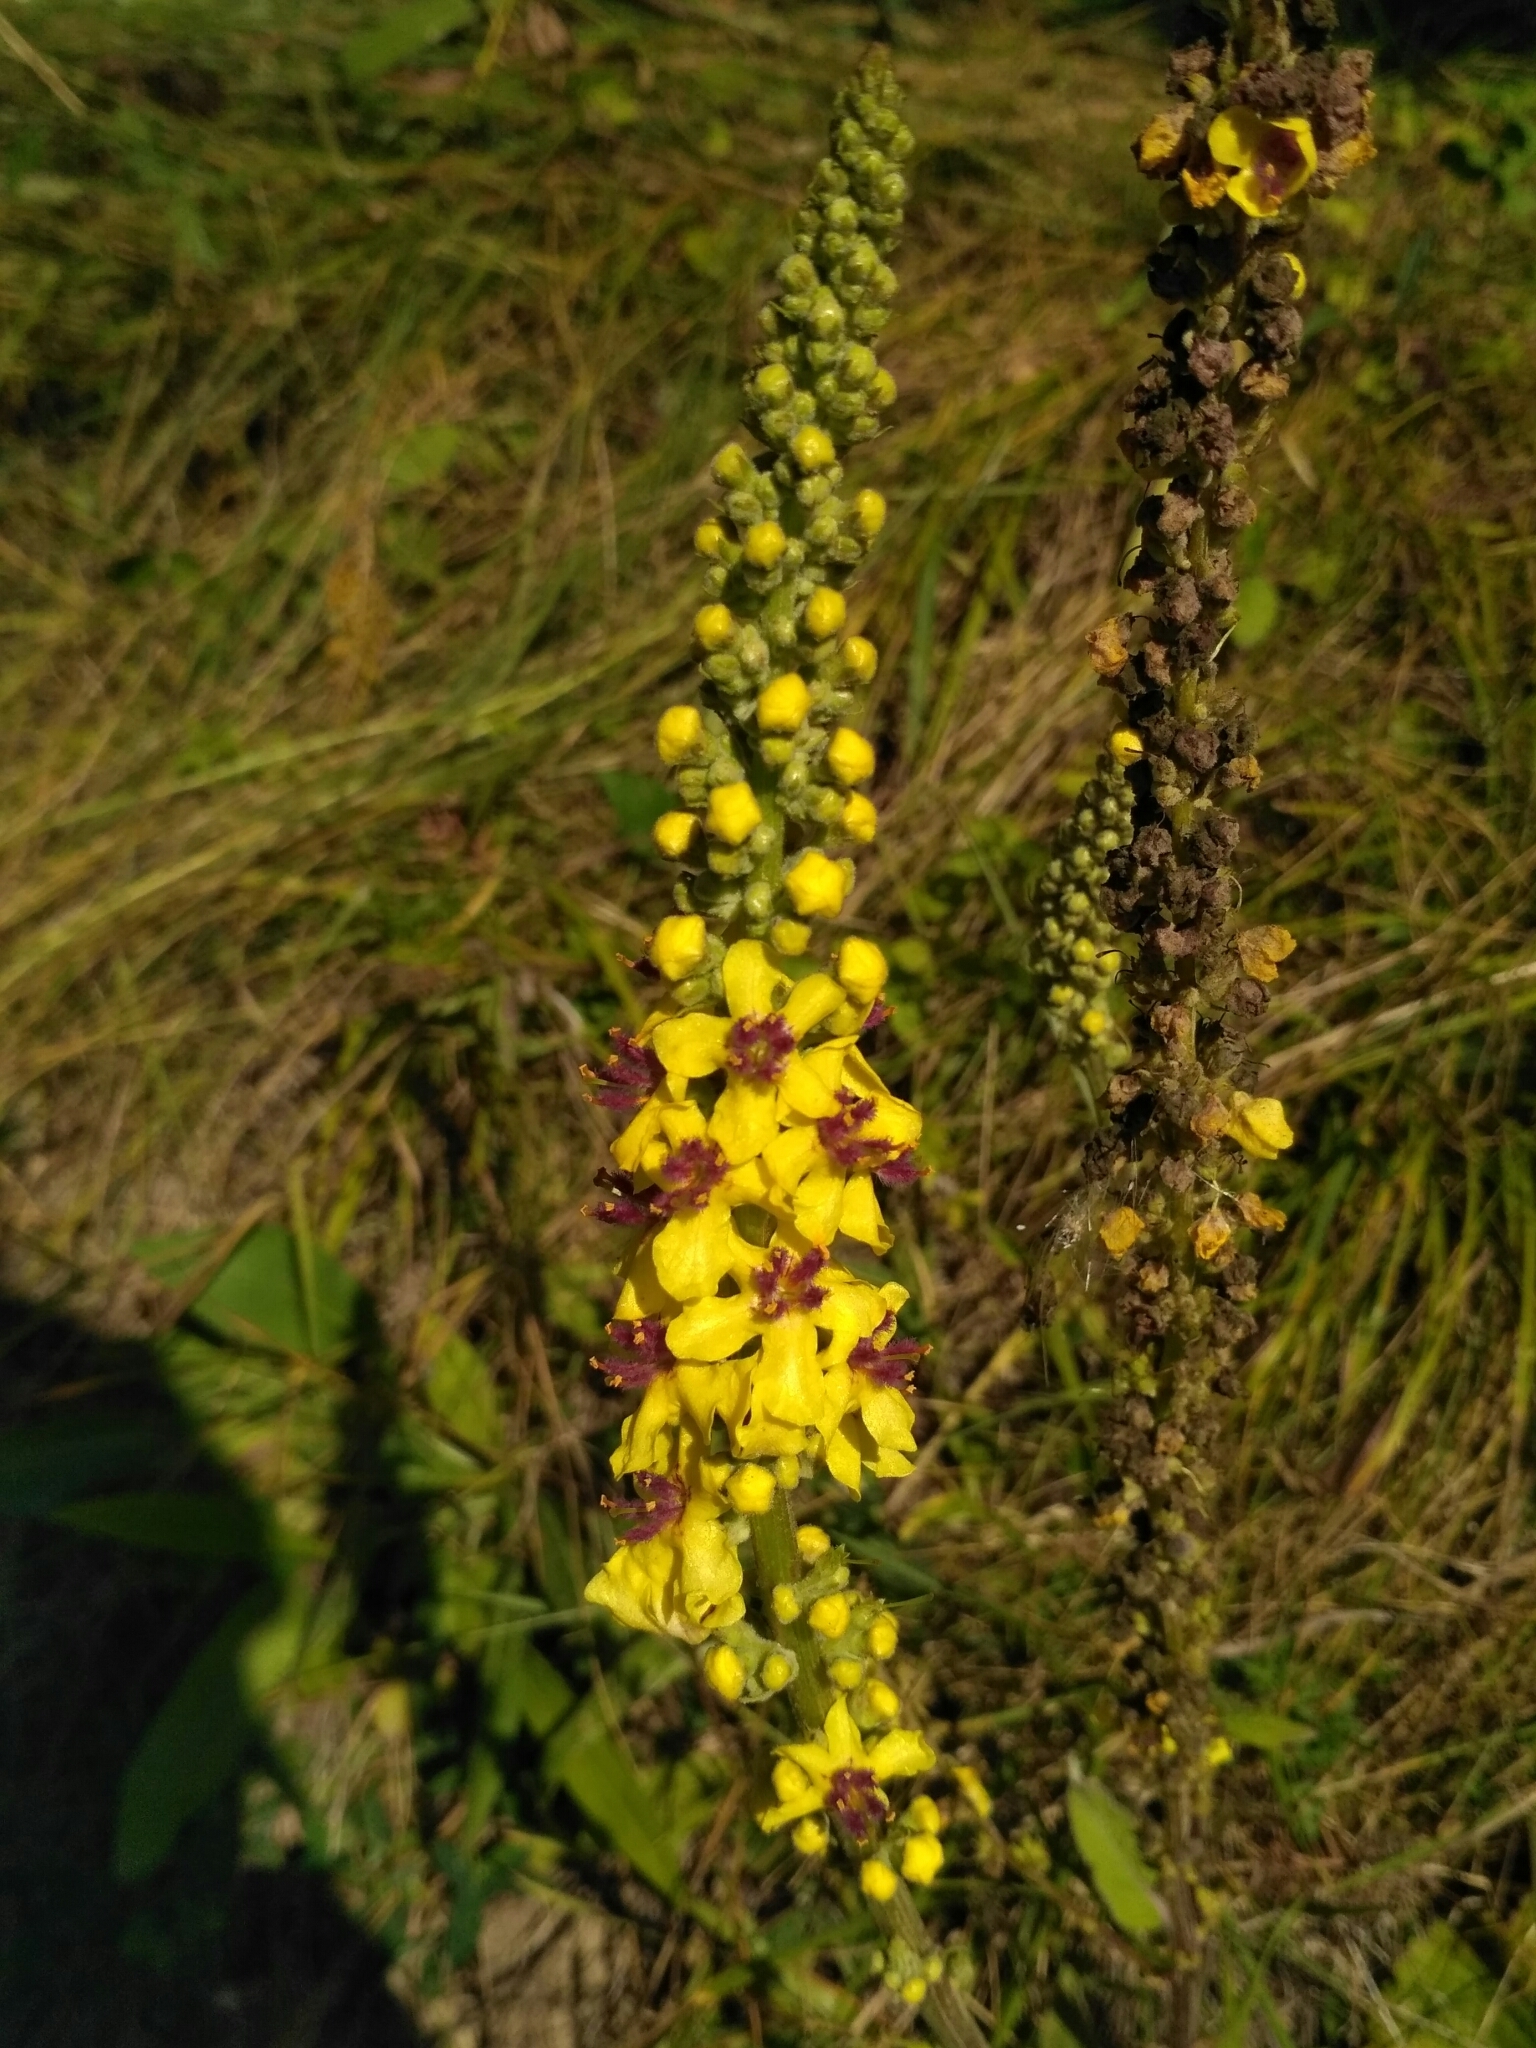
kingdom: Plantae
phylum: Tracheophyta
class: Magnoliopsida
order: Lamiales
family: Scrophulariaceae
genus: Verbascum
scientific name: Verbascum nigrum
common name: Dark mullein
